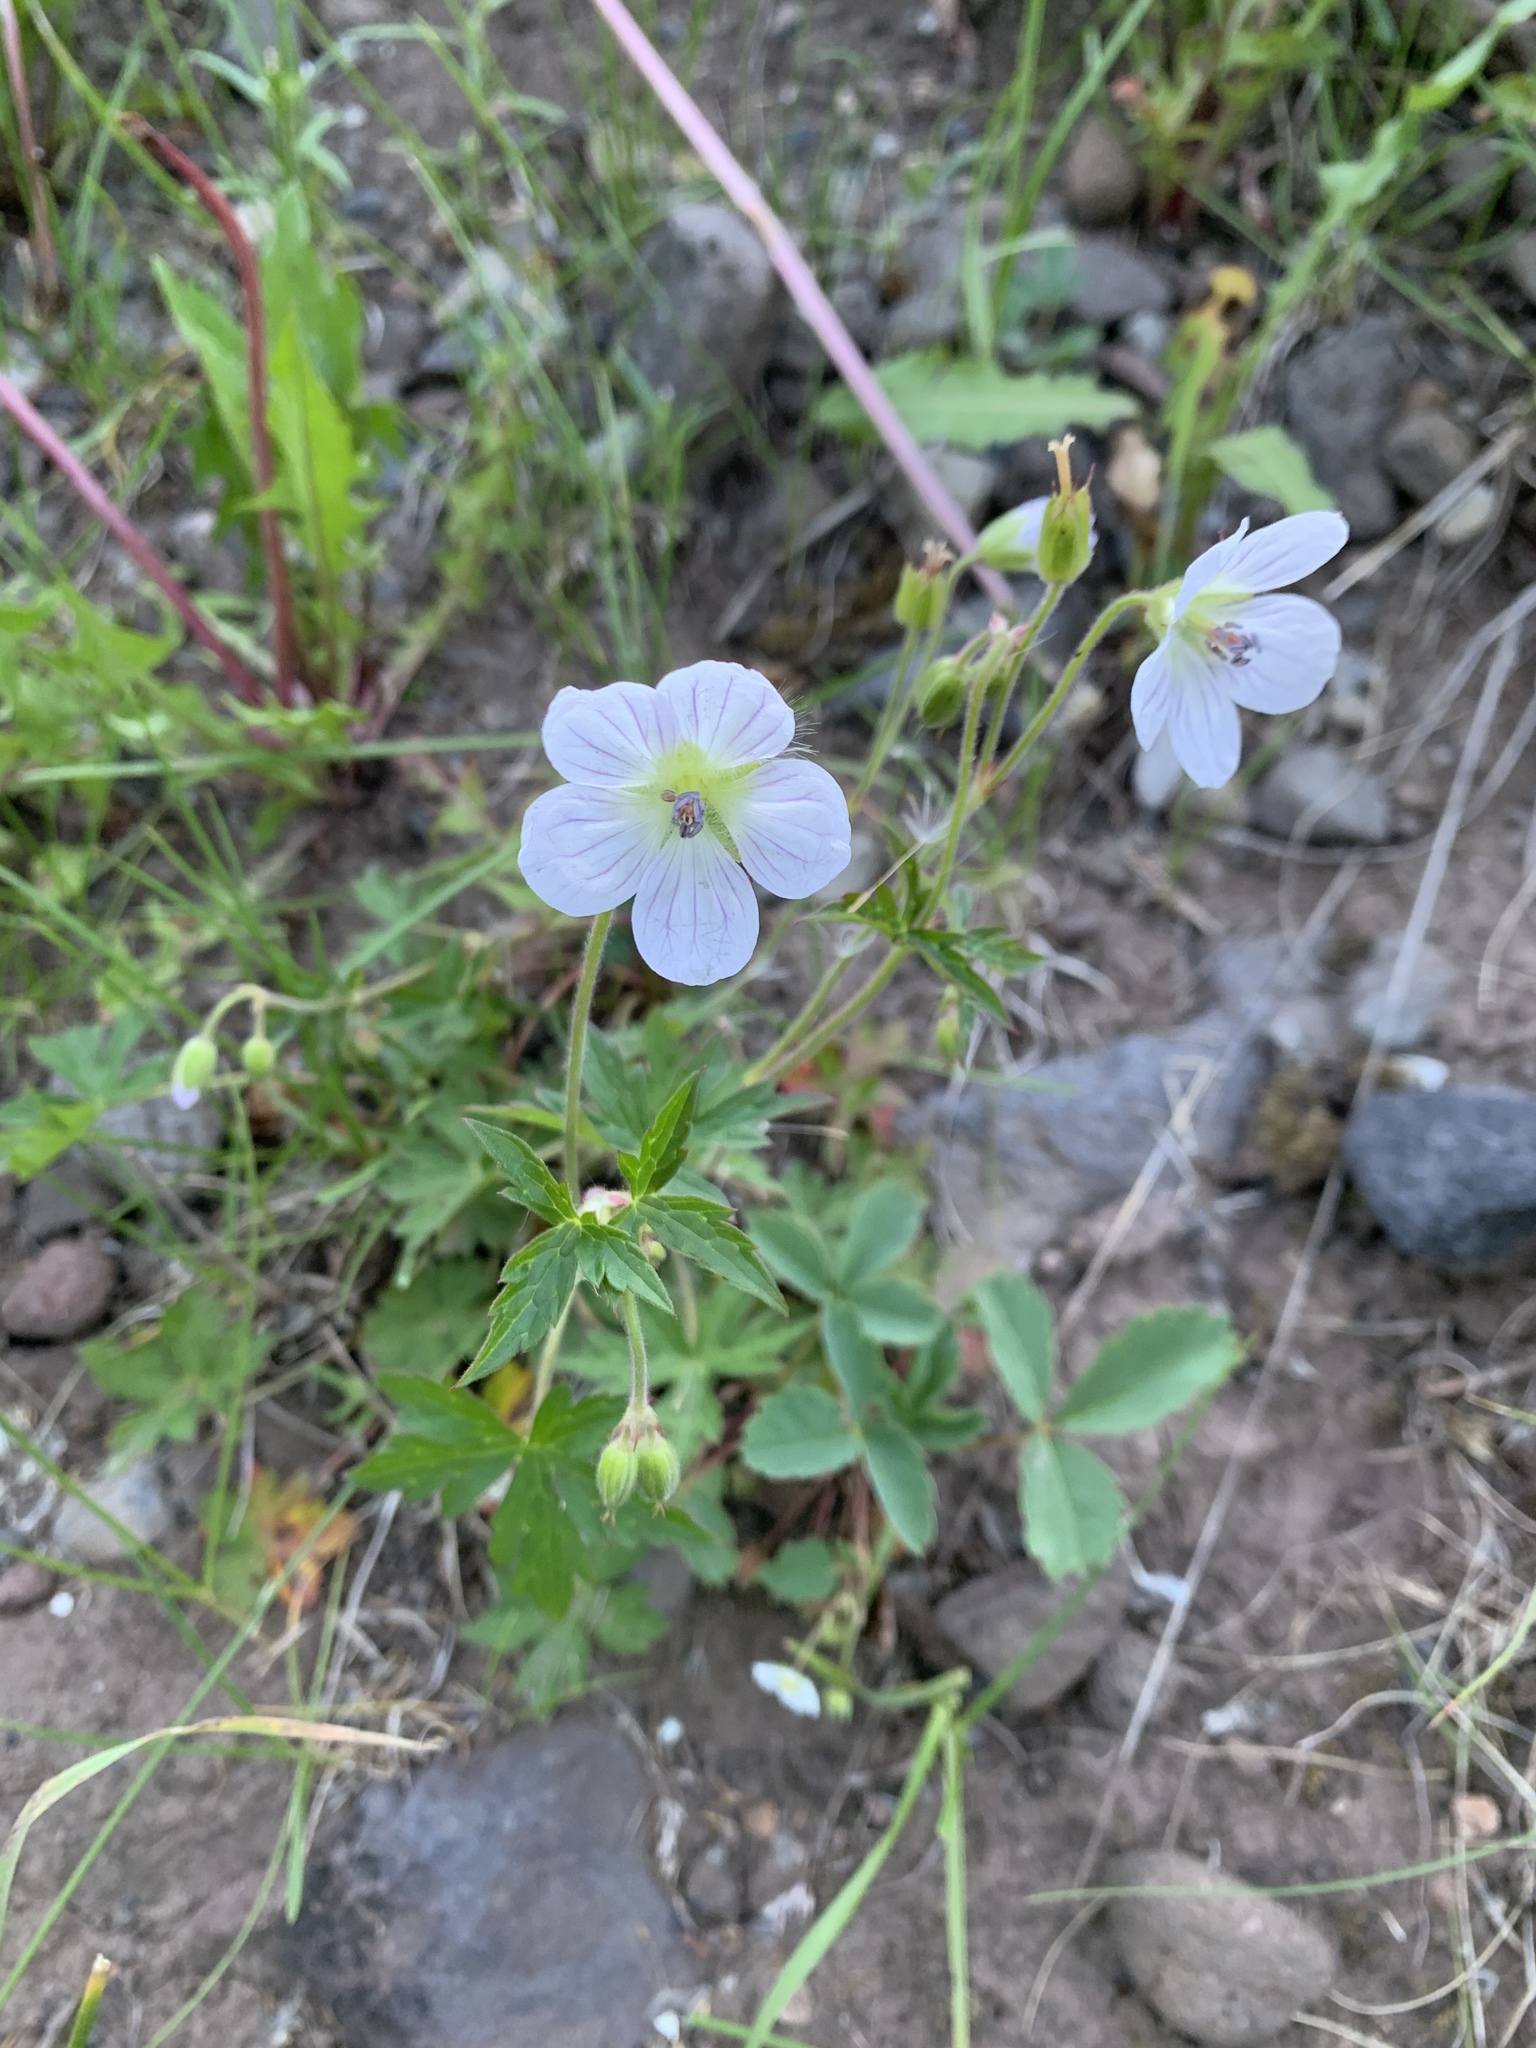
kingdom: Plantae
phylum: Tracheophyta
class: Magnoliopsida
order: Geraniales
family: Geraniaceae
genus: Geranium
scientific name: Geranium richardsonii
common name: Richardson's crane's-bill
